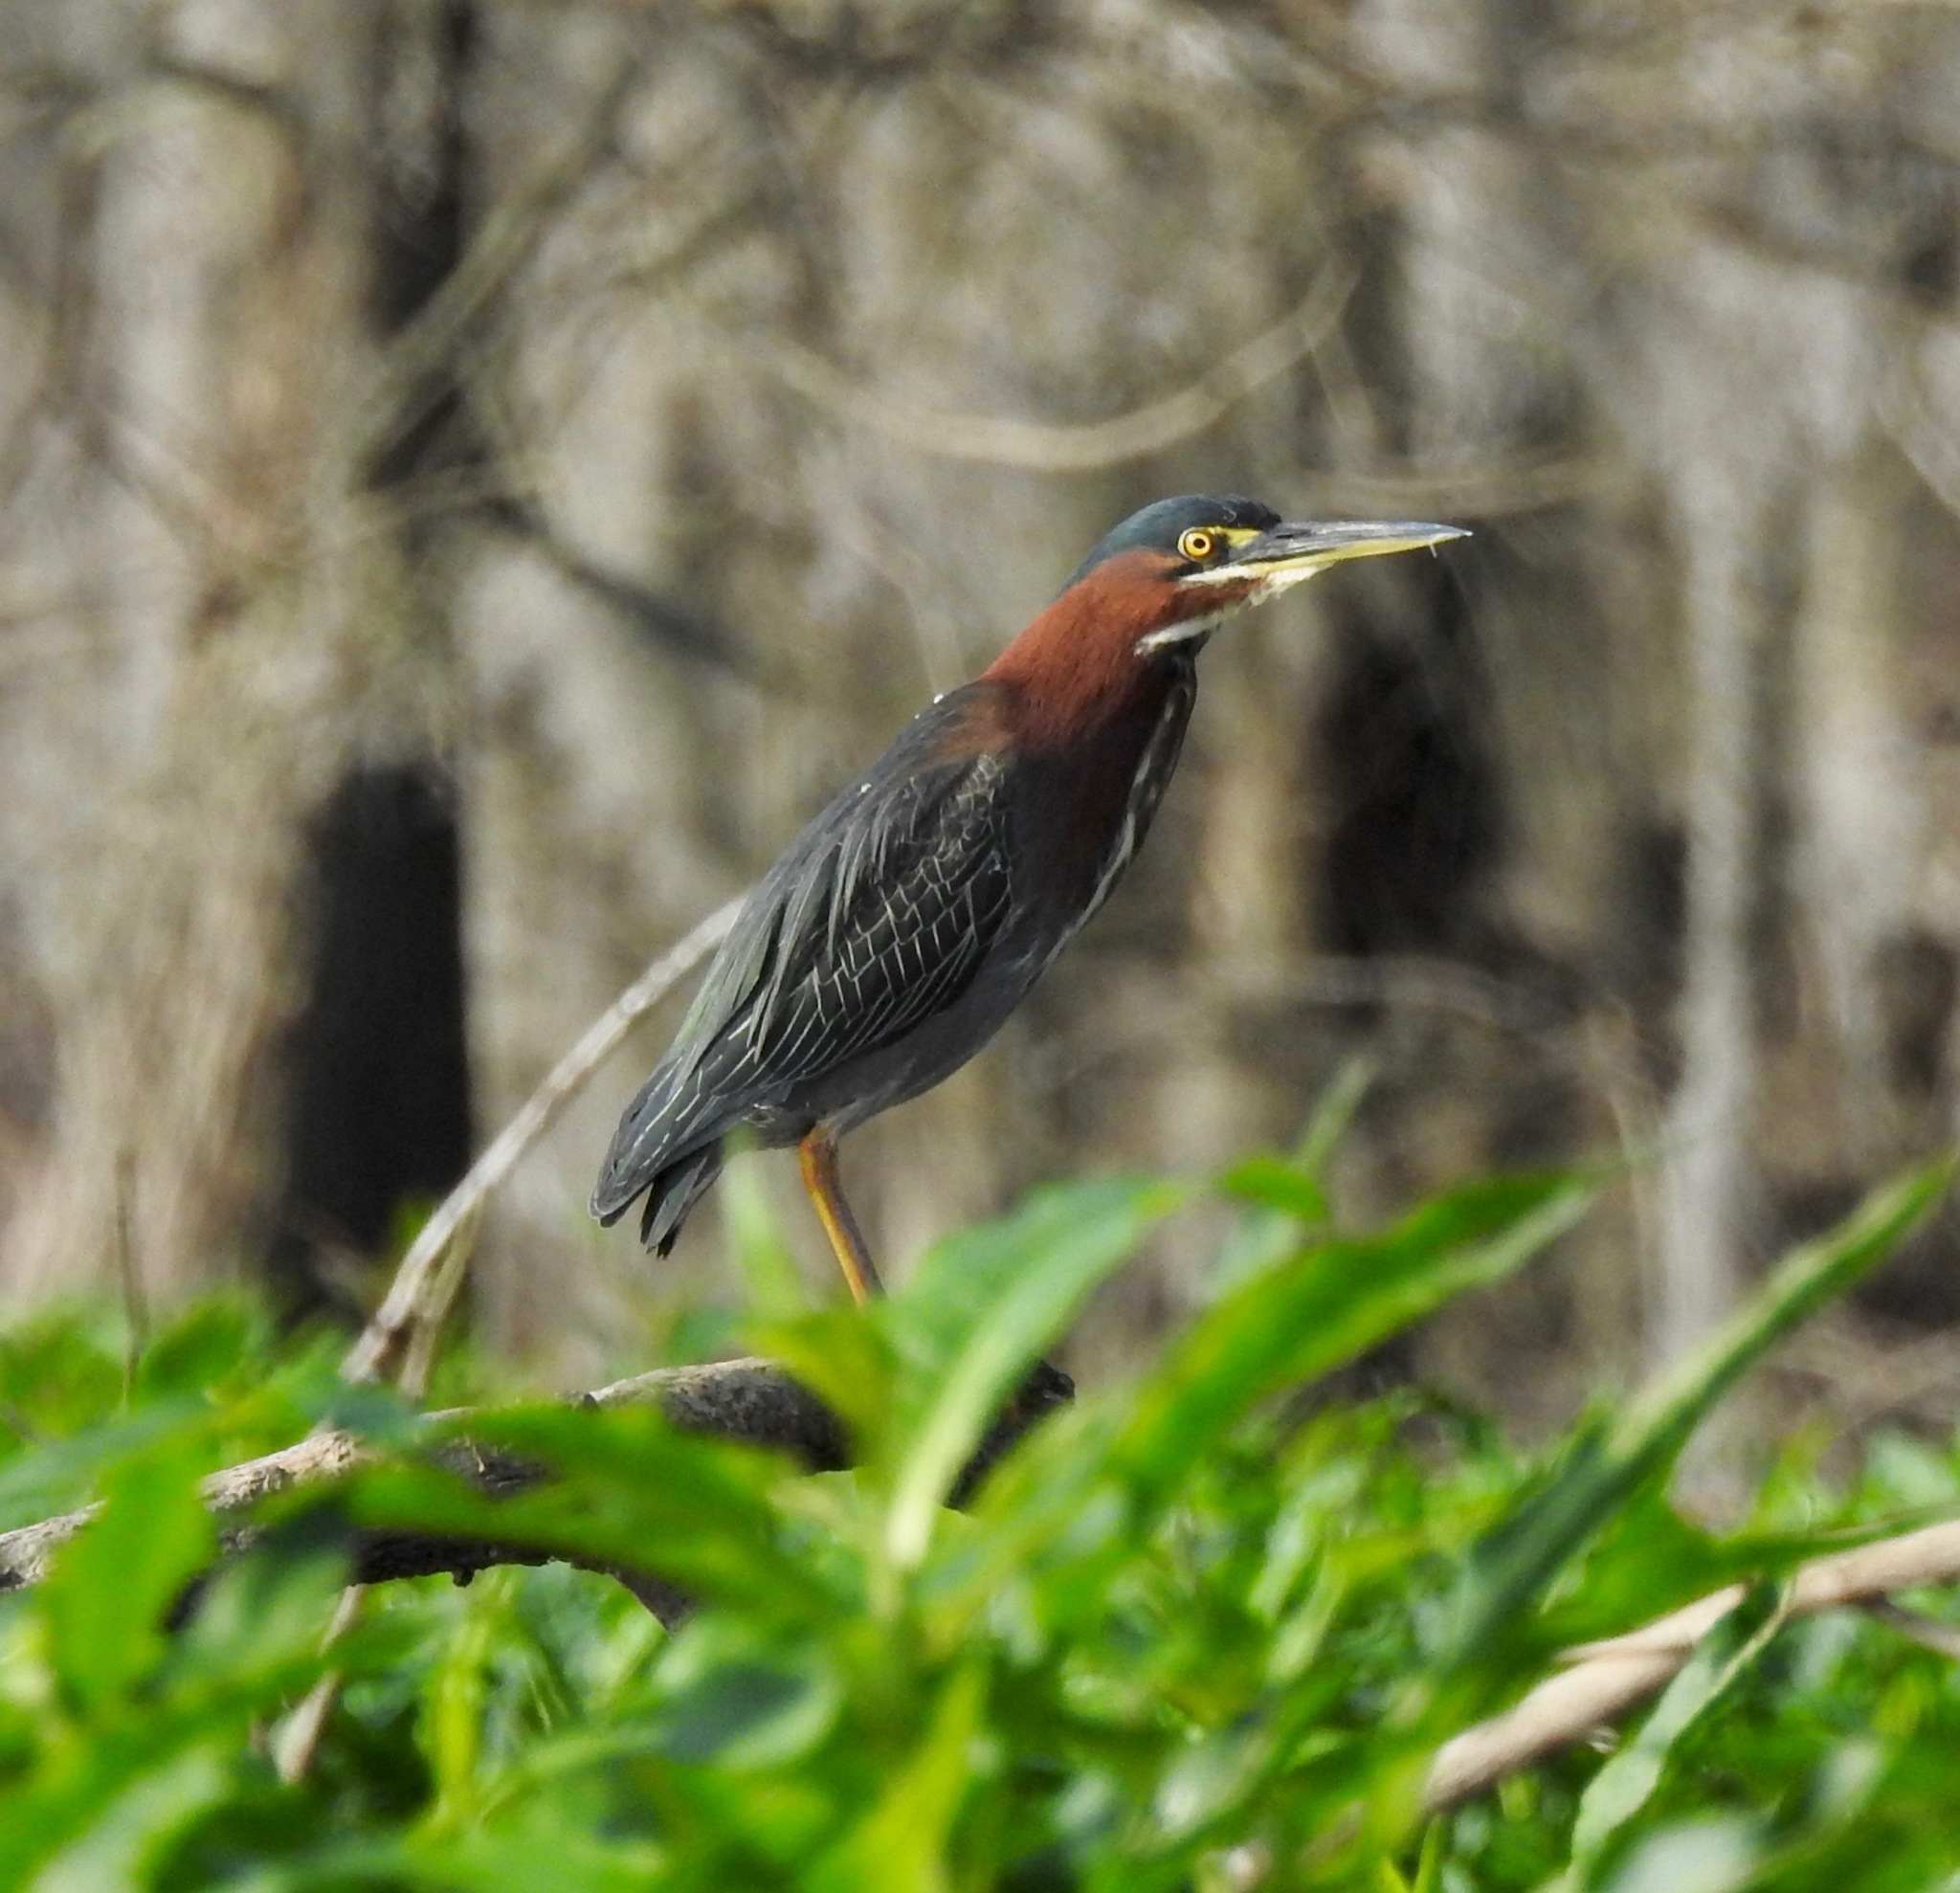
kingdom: Animalia
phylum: Chordata
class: Aves
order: Pelecaniformes
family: Ardeidae
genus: Butorides
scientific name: Butorides virescens
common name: Green heron
